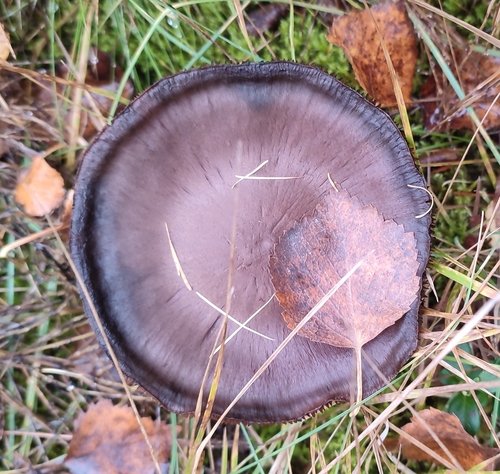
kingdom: Fungi
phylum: Basidiomycota
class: Agaricomycetes
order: Agaricales
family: Cortinariaceae
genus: Cortinarius
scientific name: Cortinarius
